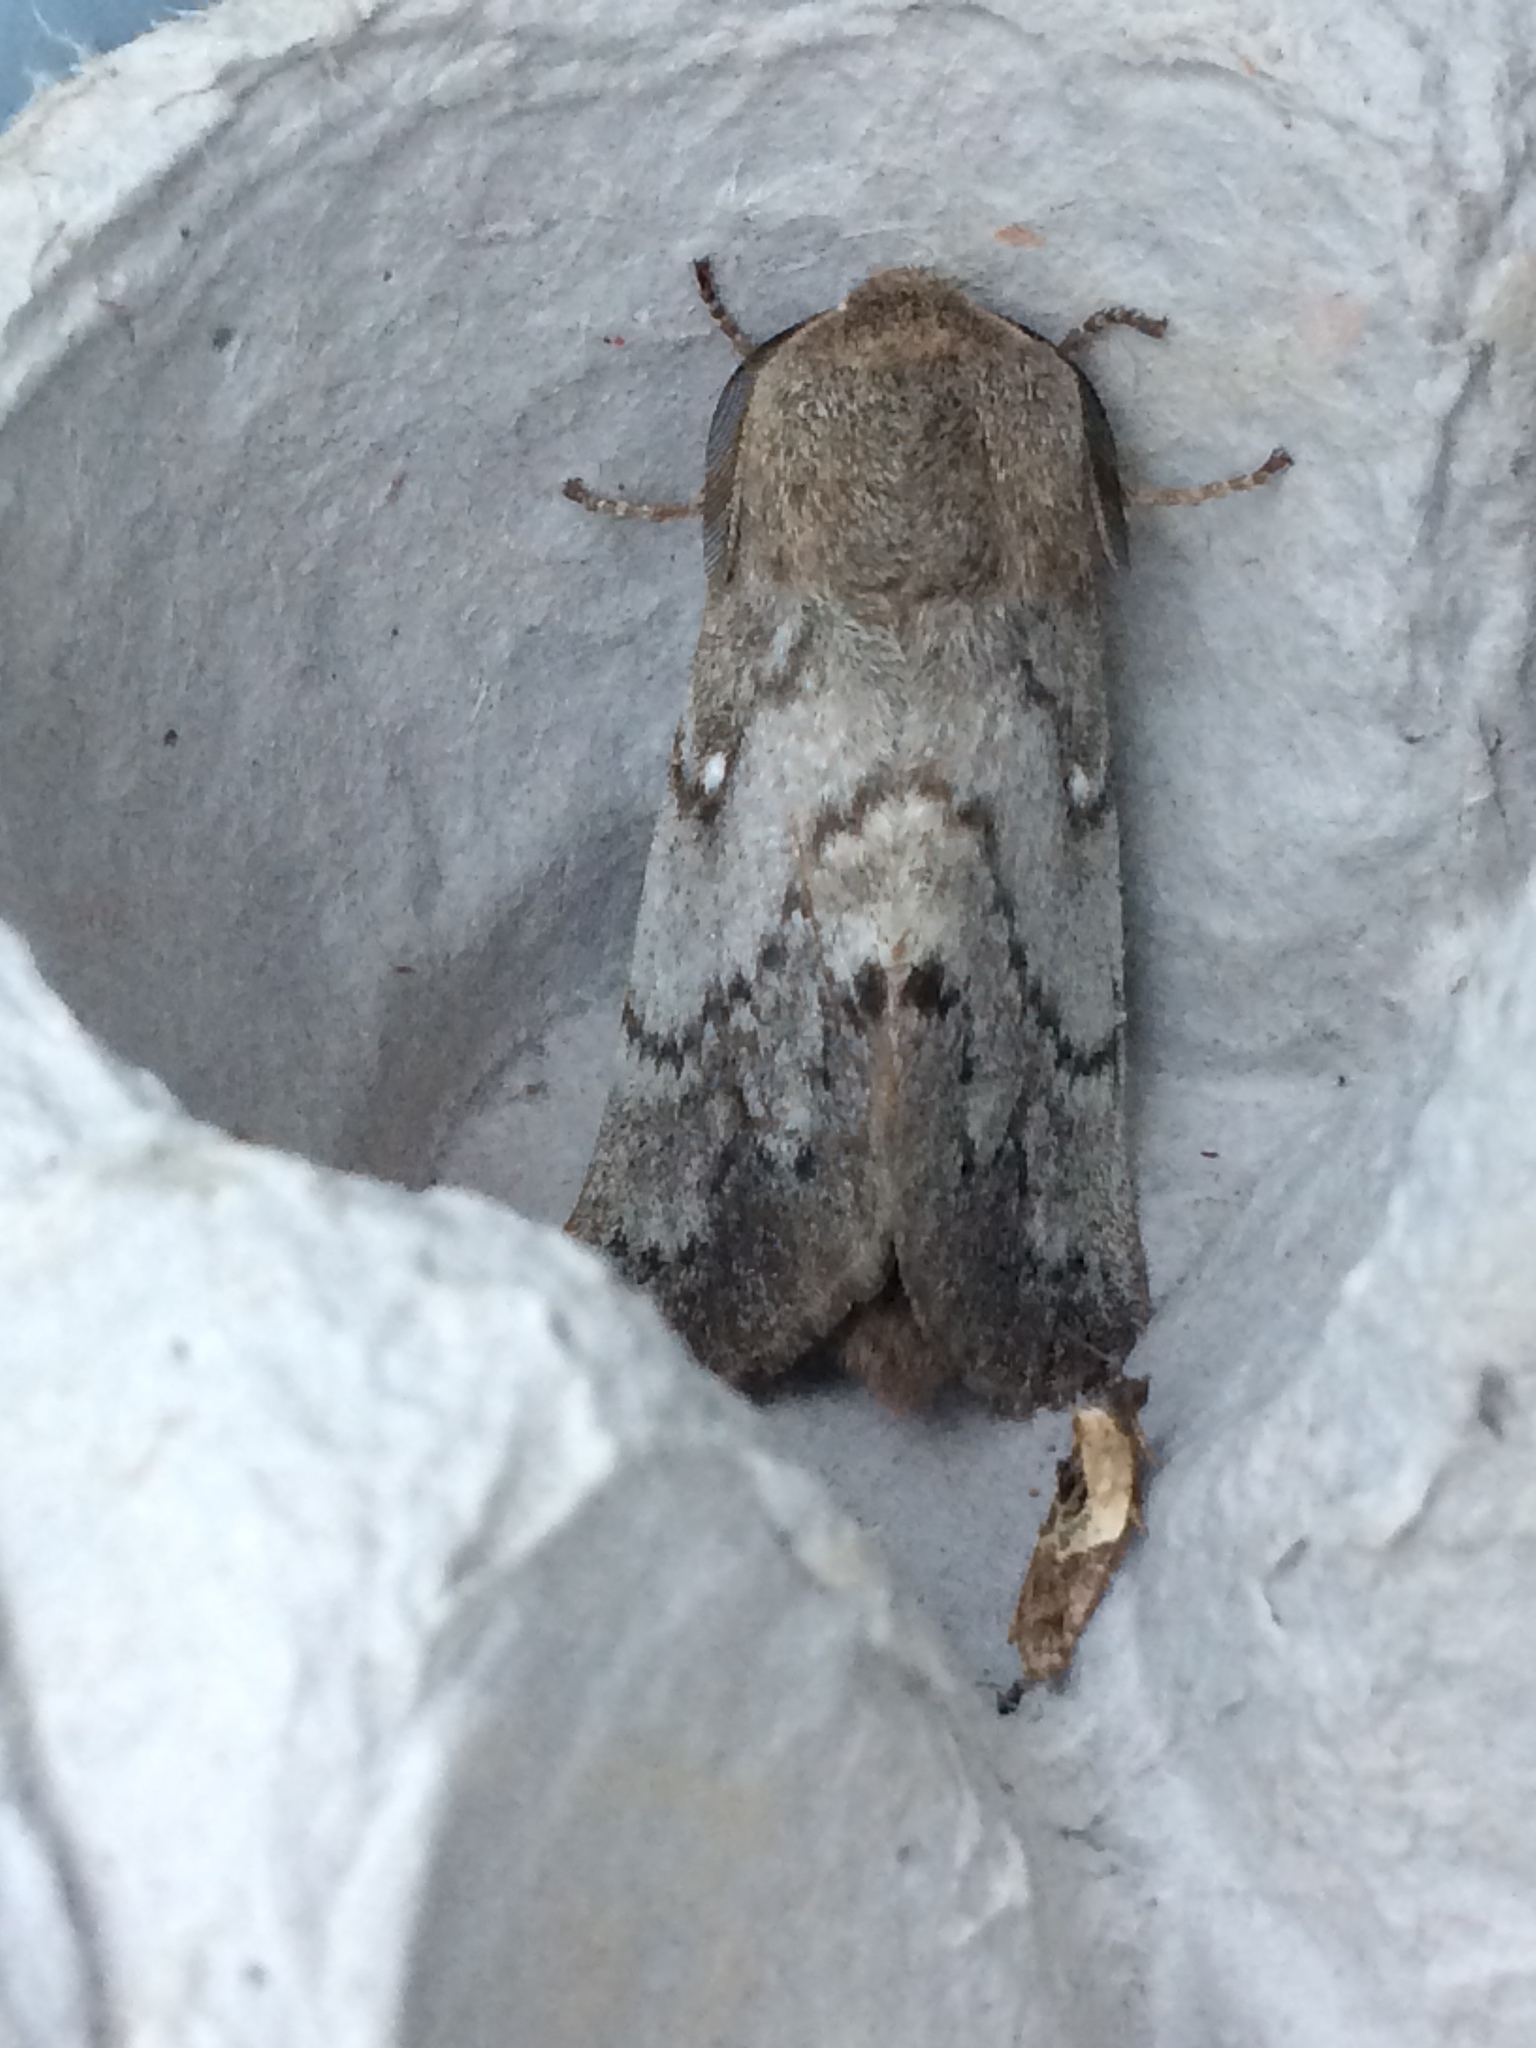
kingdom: Animalia
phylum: Arthropoda
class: Insecta
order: Lepidoptera
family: Lasiocampidae
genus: Dendrolimus
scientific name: Dendrolimus pini
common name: Pine-tree lappet
